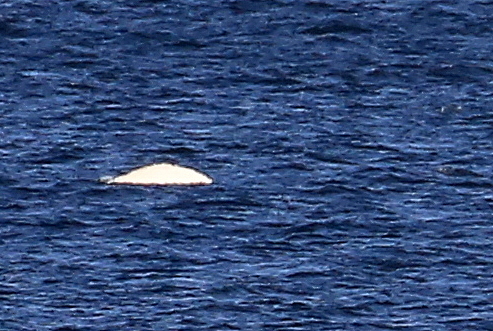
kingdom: Animalia
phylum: Chordata
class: Mammalia
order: Cetacea
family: Monodontidae
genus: Delphinapterus
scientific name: Delphinapterus leucas
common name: Beluga
